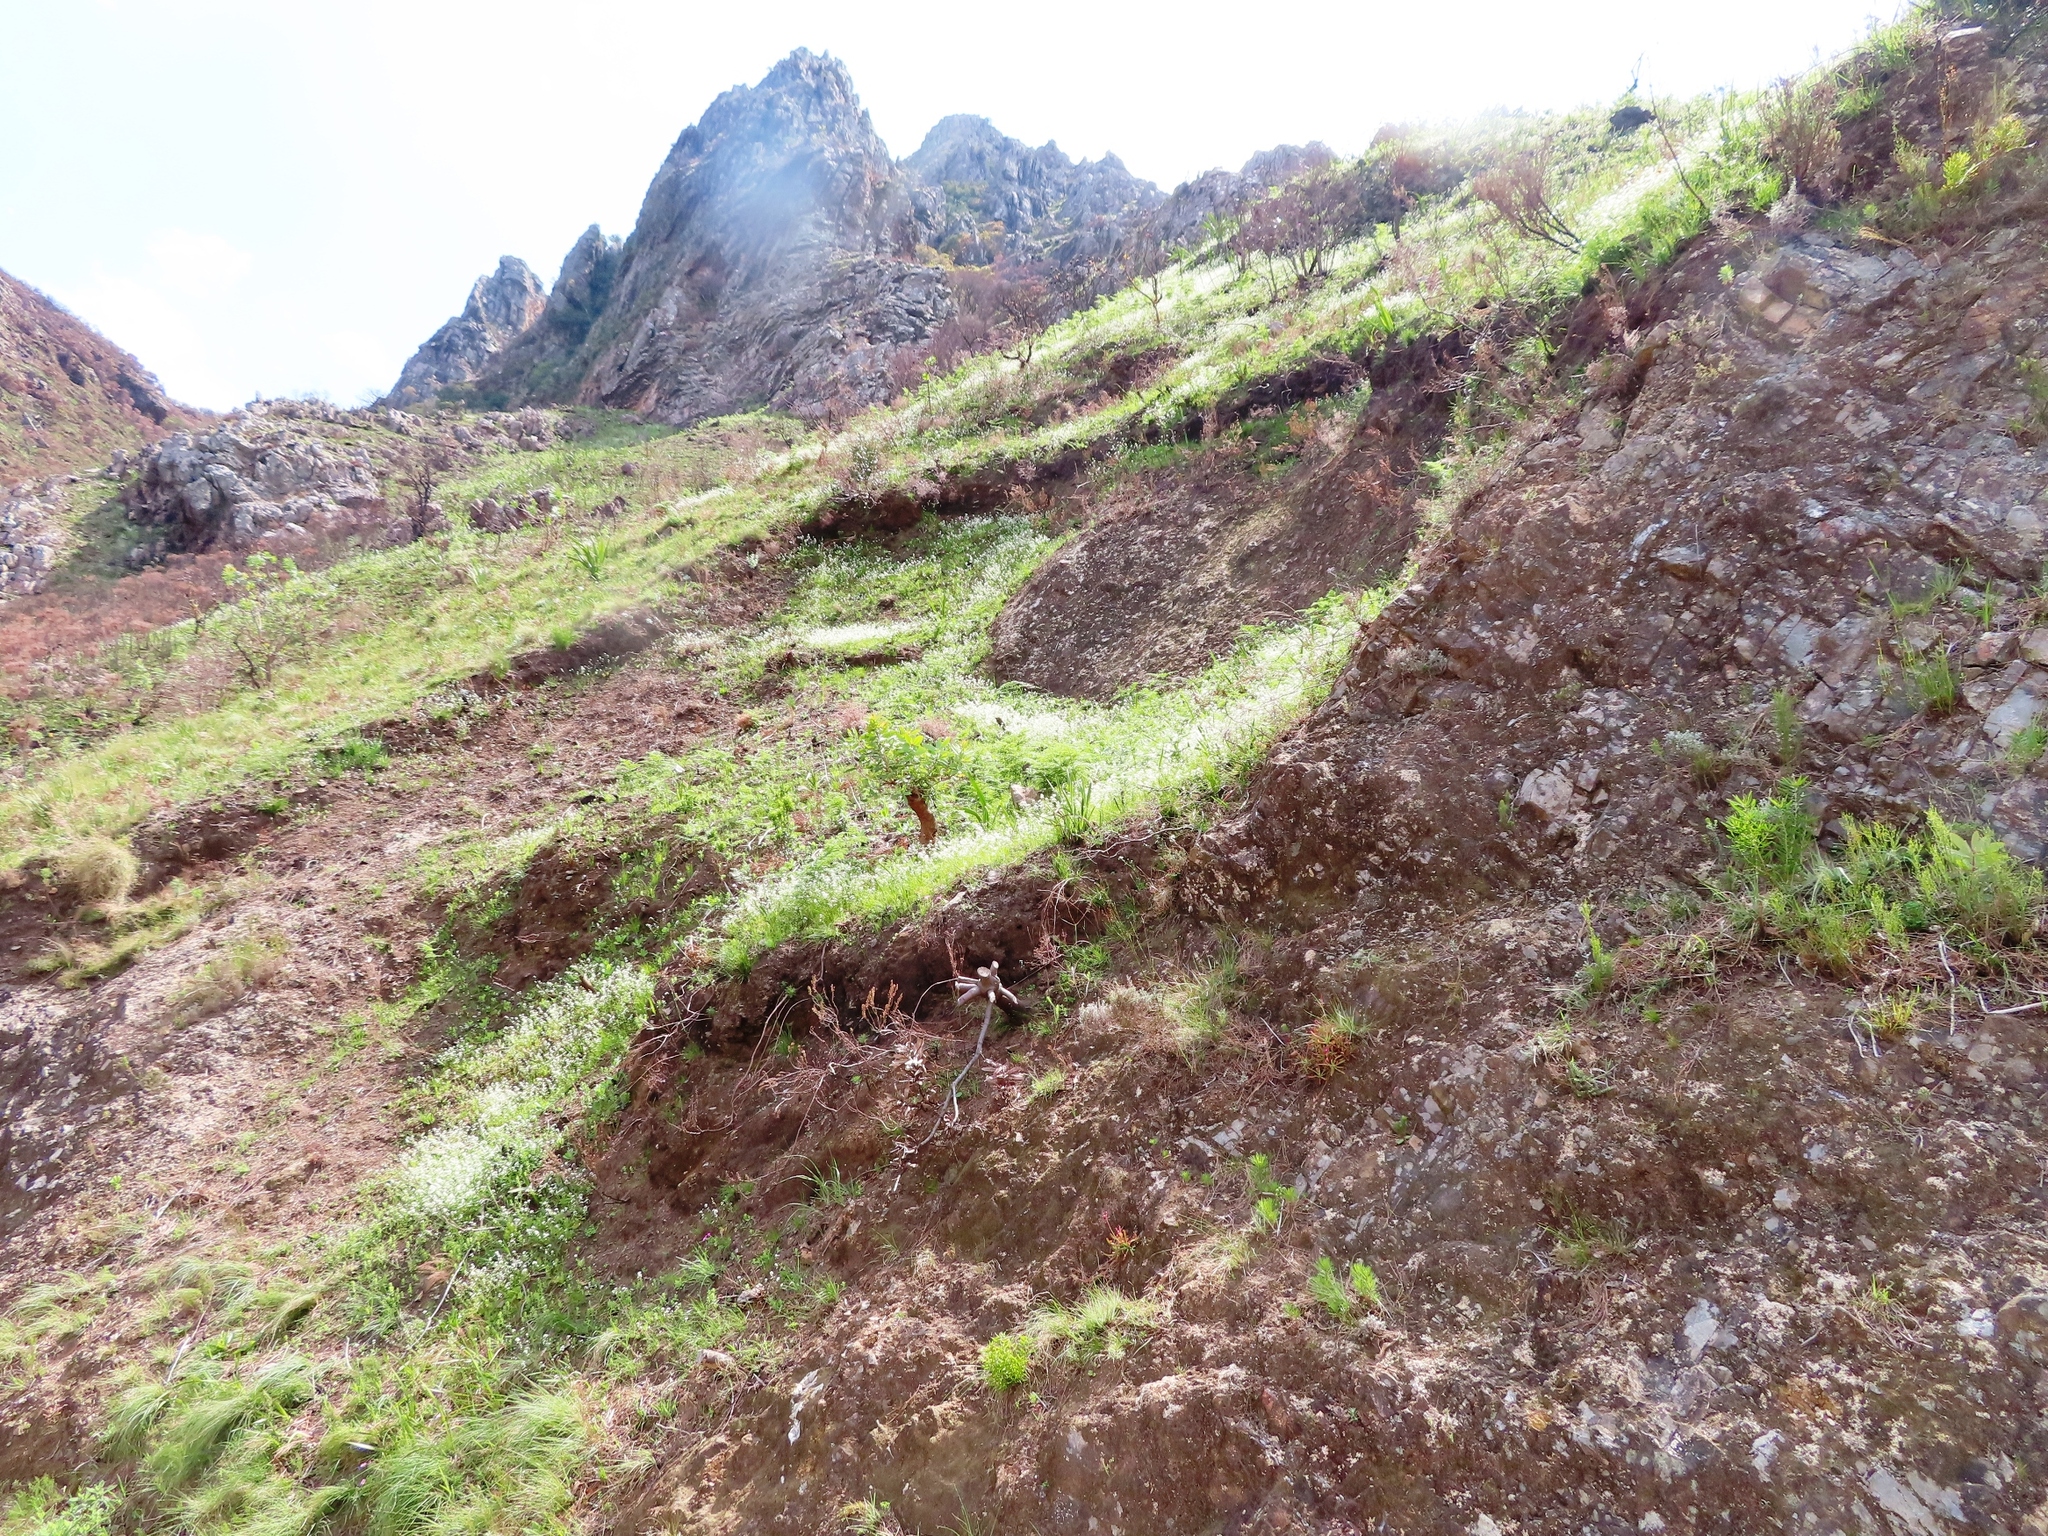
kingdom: Plantae
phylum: Tracheophyta
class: Magnoliopsida
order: Brassicales
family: Brassicaceae
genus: Heliophila
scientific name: Heliophila diffusa
